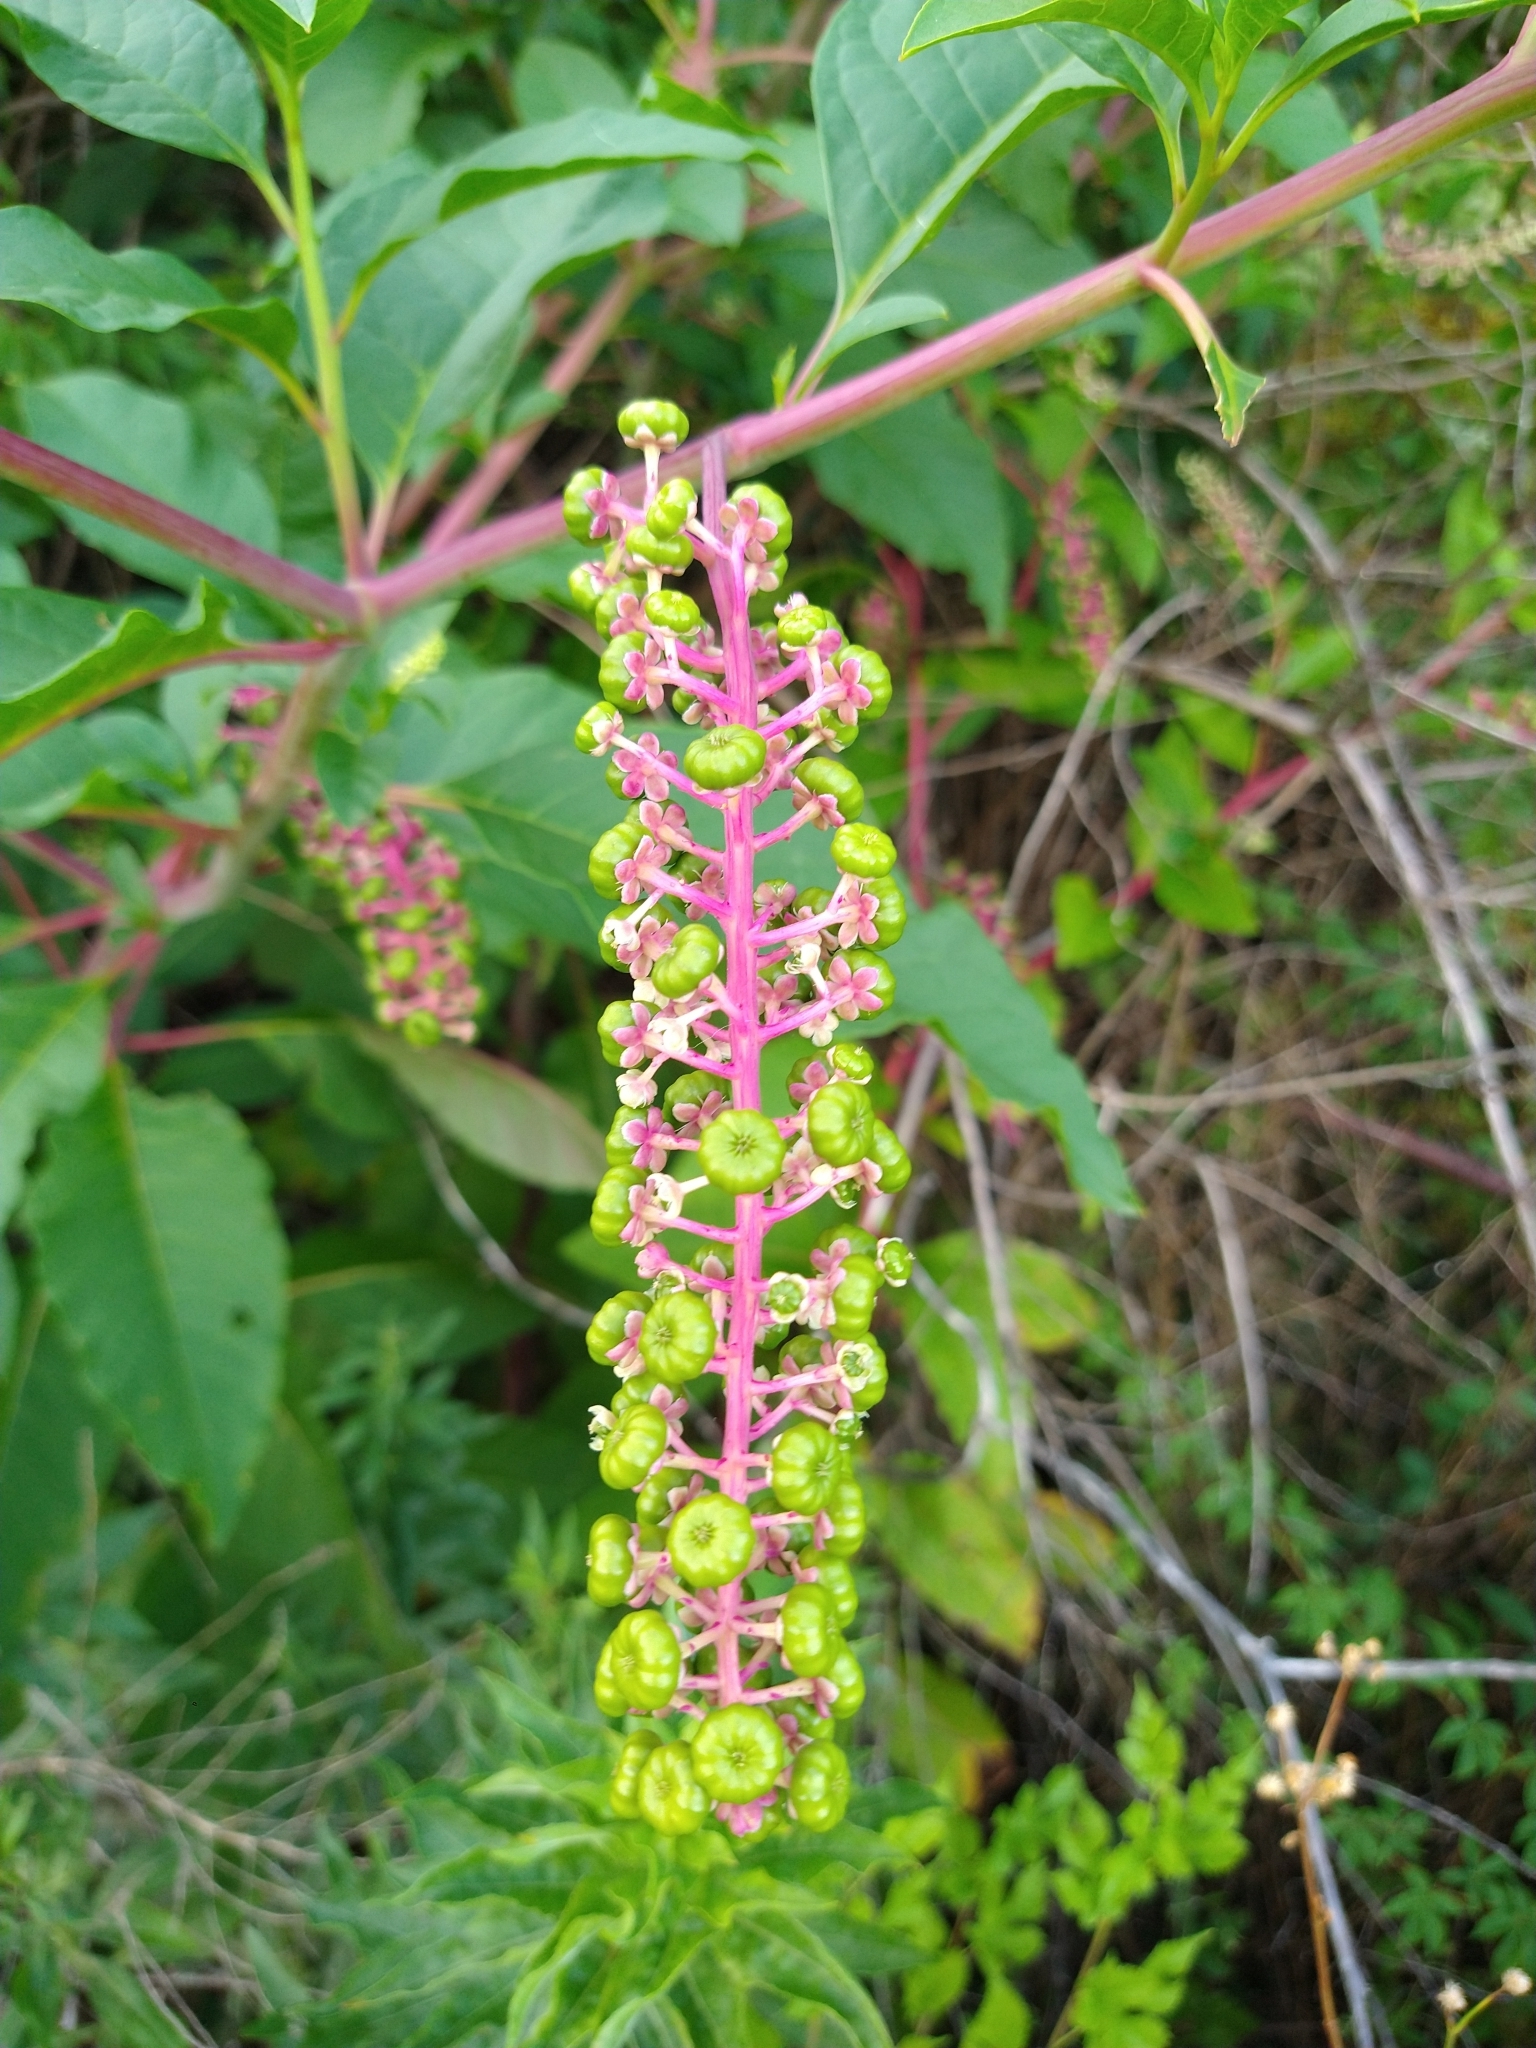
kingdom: Plantae
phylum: Tracheophyta
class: Magnoliopsida
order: Caryophyllales
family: Phytolaccaceae
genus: Phytolacca
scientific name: Phytolacca americana
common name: American pokeweed
